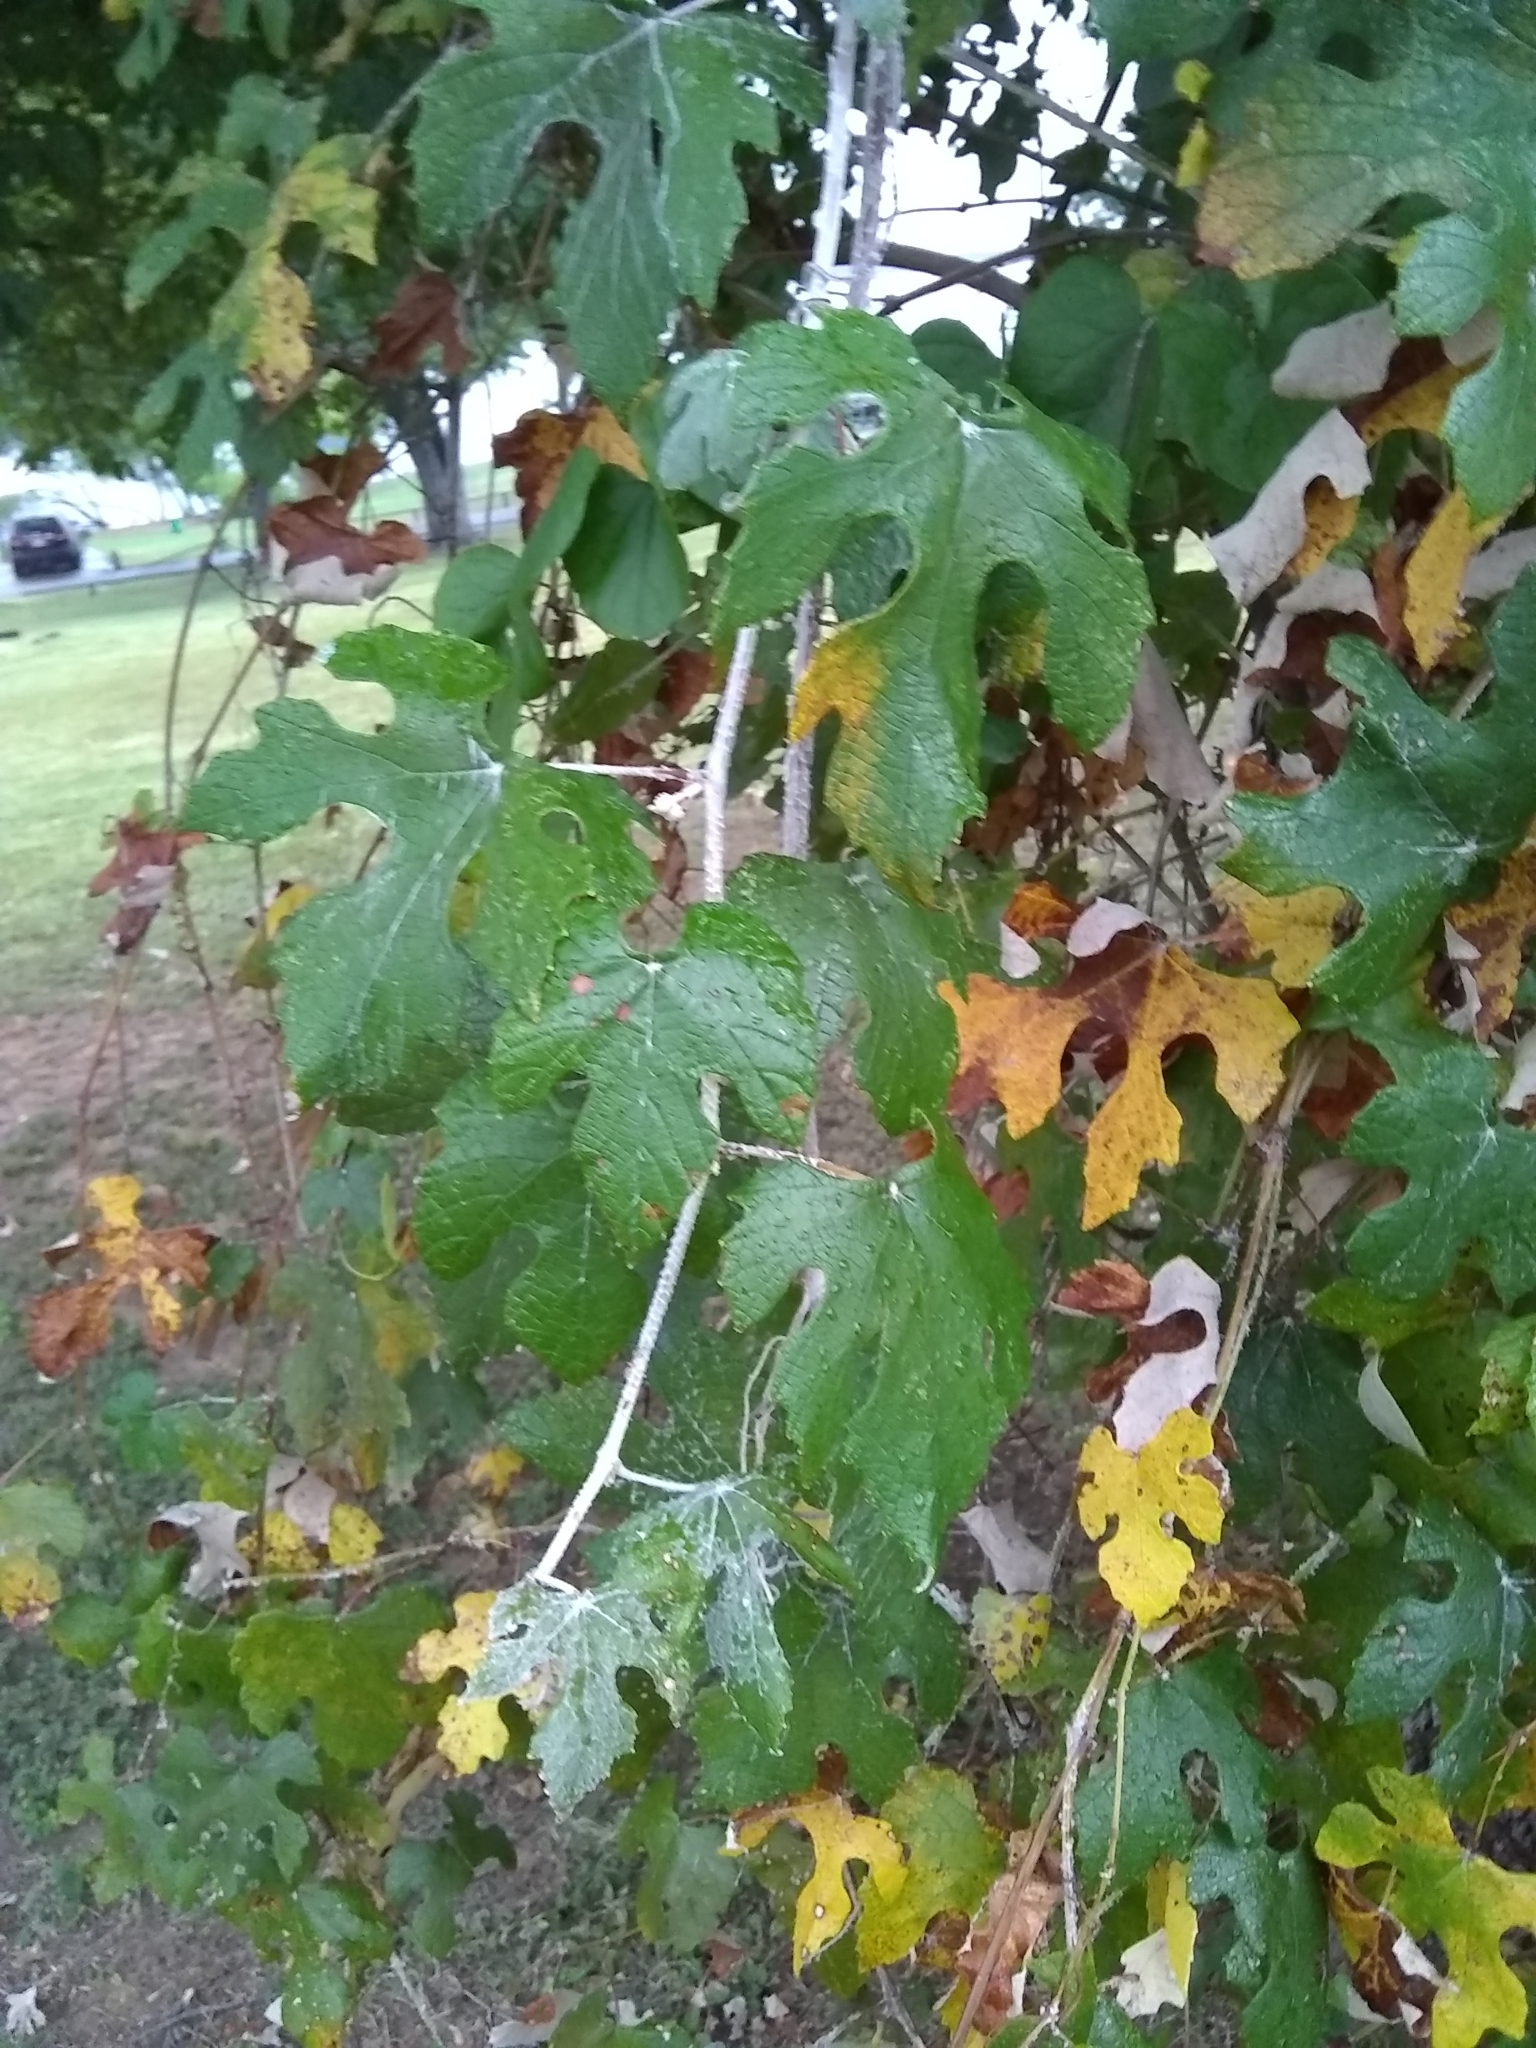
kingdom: Plantae
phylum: Tracheophyta
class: Magnoliopsida
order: Vitales
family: Vitaceae
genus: Vitis
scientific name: Vitis mustangensis
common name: Mustang grape
